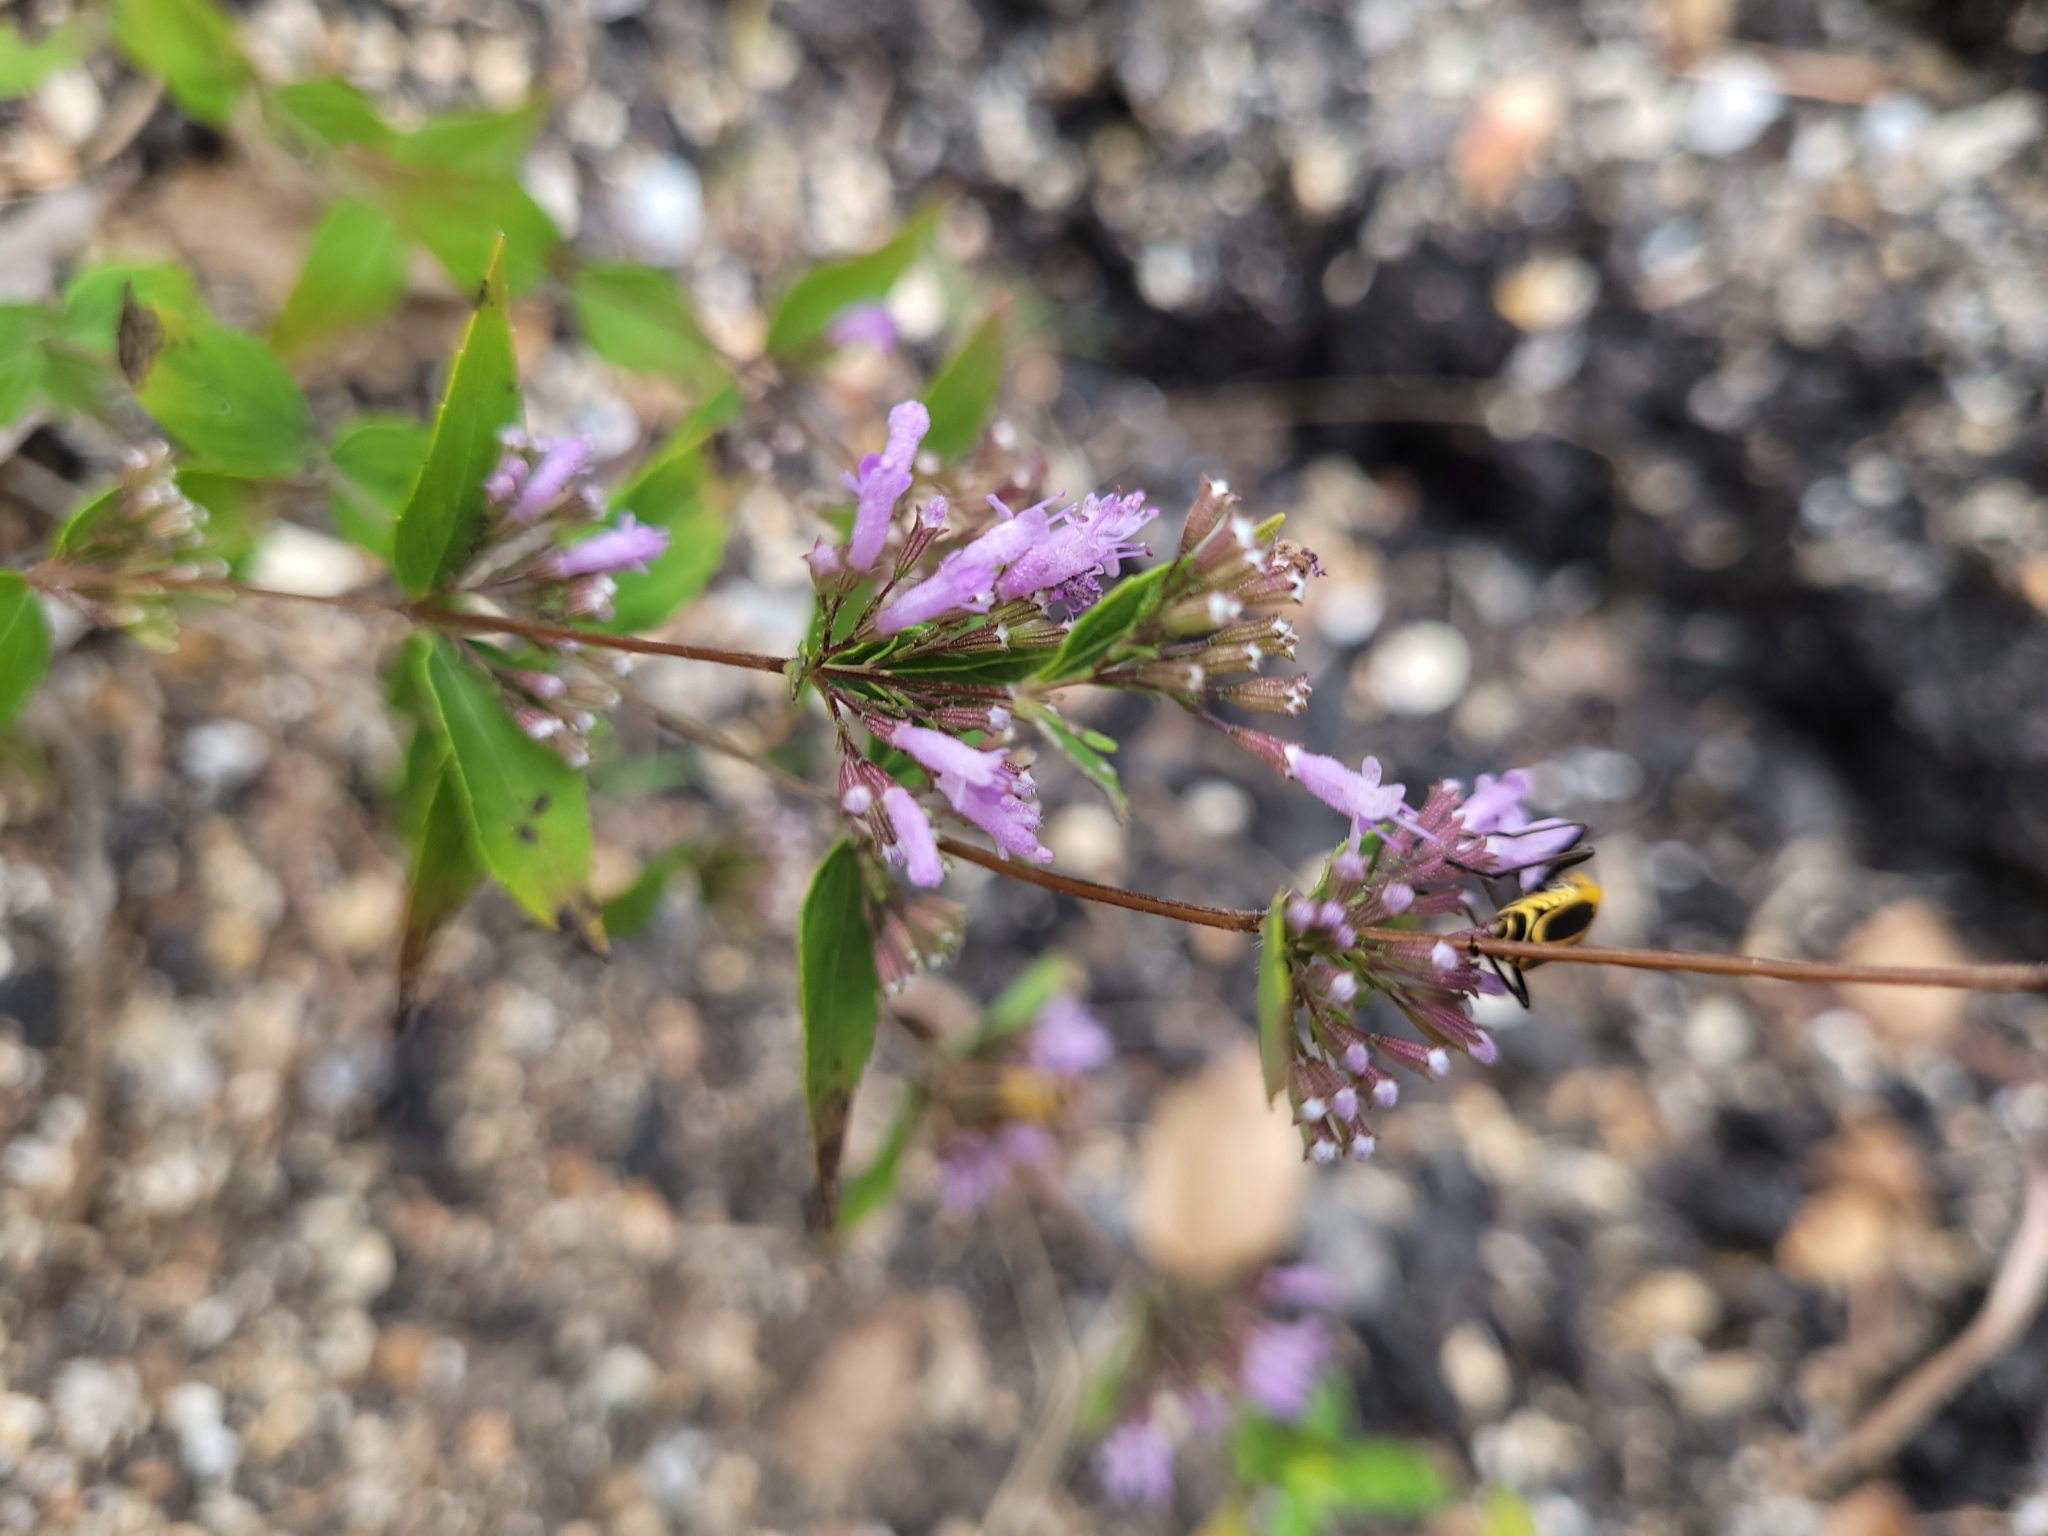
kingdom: Plantae
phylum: Tracheophyta
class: Magnoliopsida
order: Lamiales
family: Lamiaceae
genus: Cunila
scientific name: Cunila origanoides
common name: American dittany
